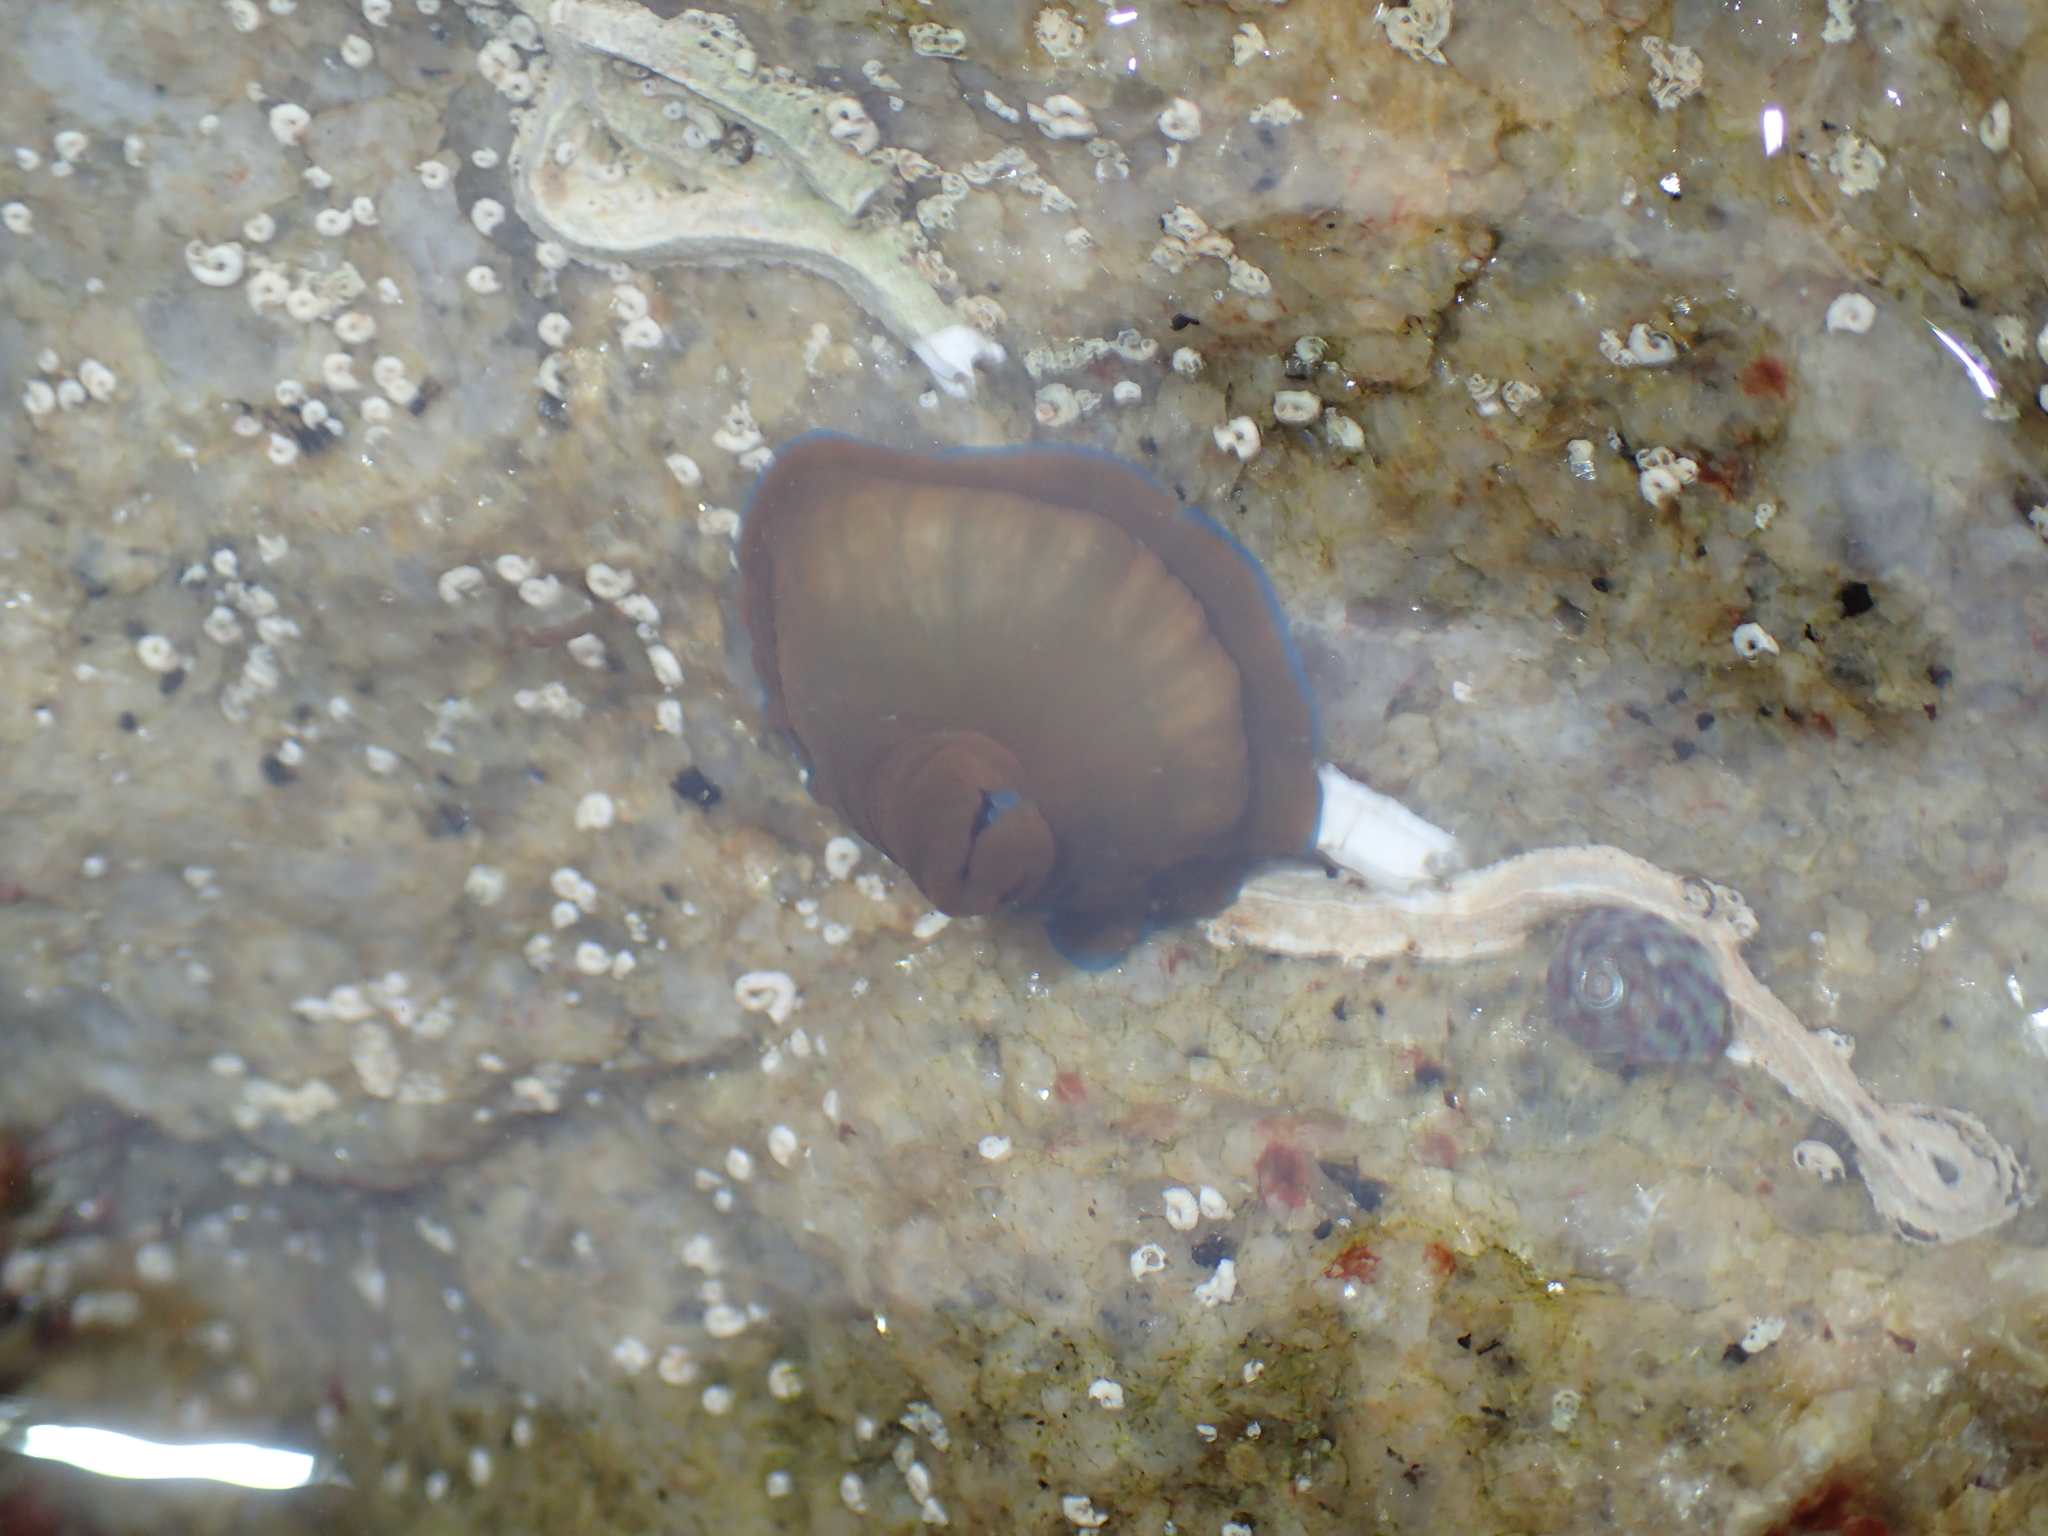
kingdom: Animalia
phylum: Cnidaria
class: Anthozoa
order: Actiniaria
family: Actiniidae
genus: Actinia
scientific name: Actinia equina
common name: Beadlet anemone
